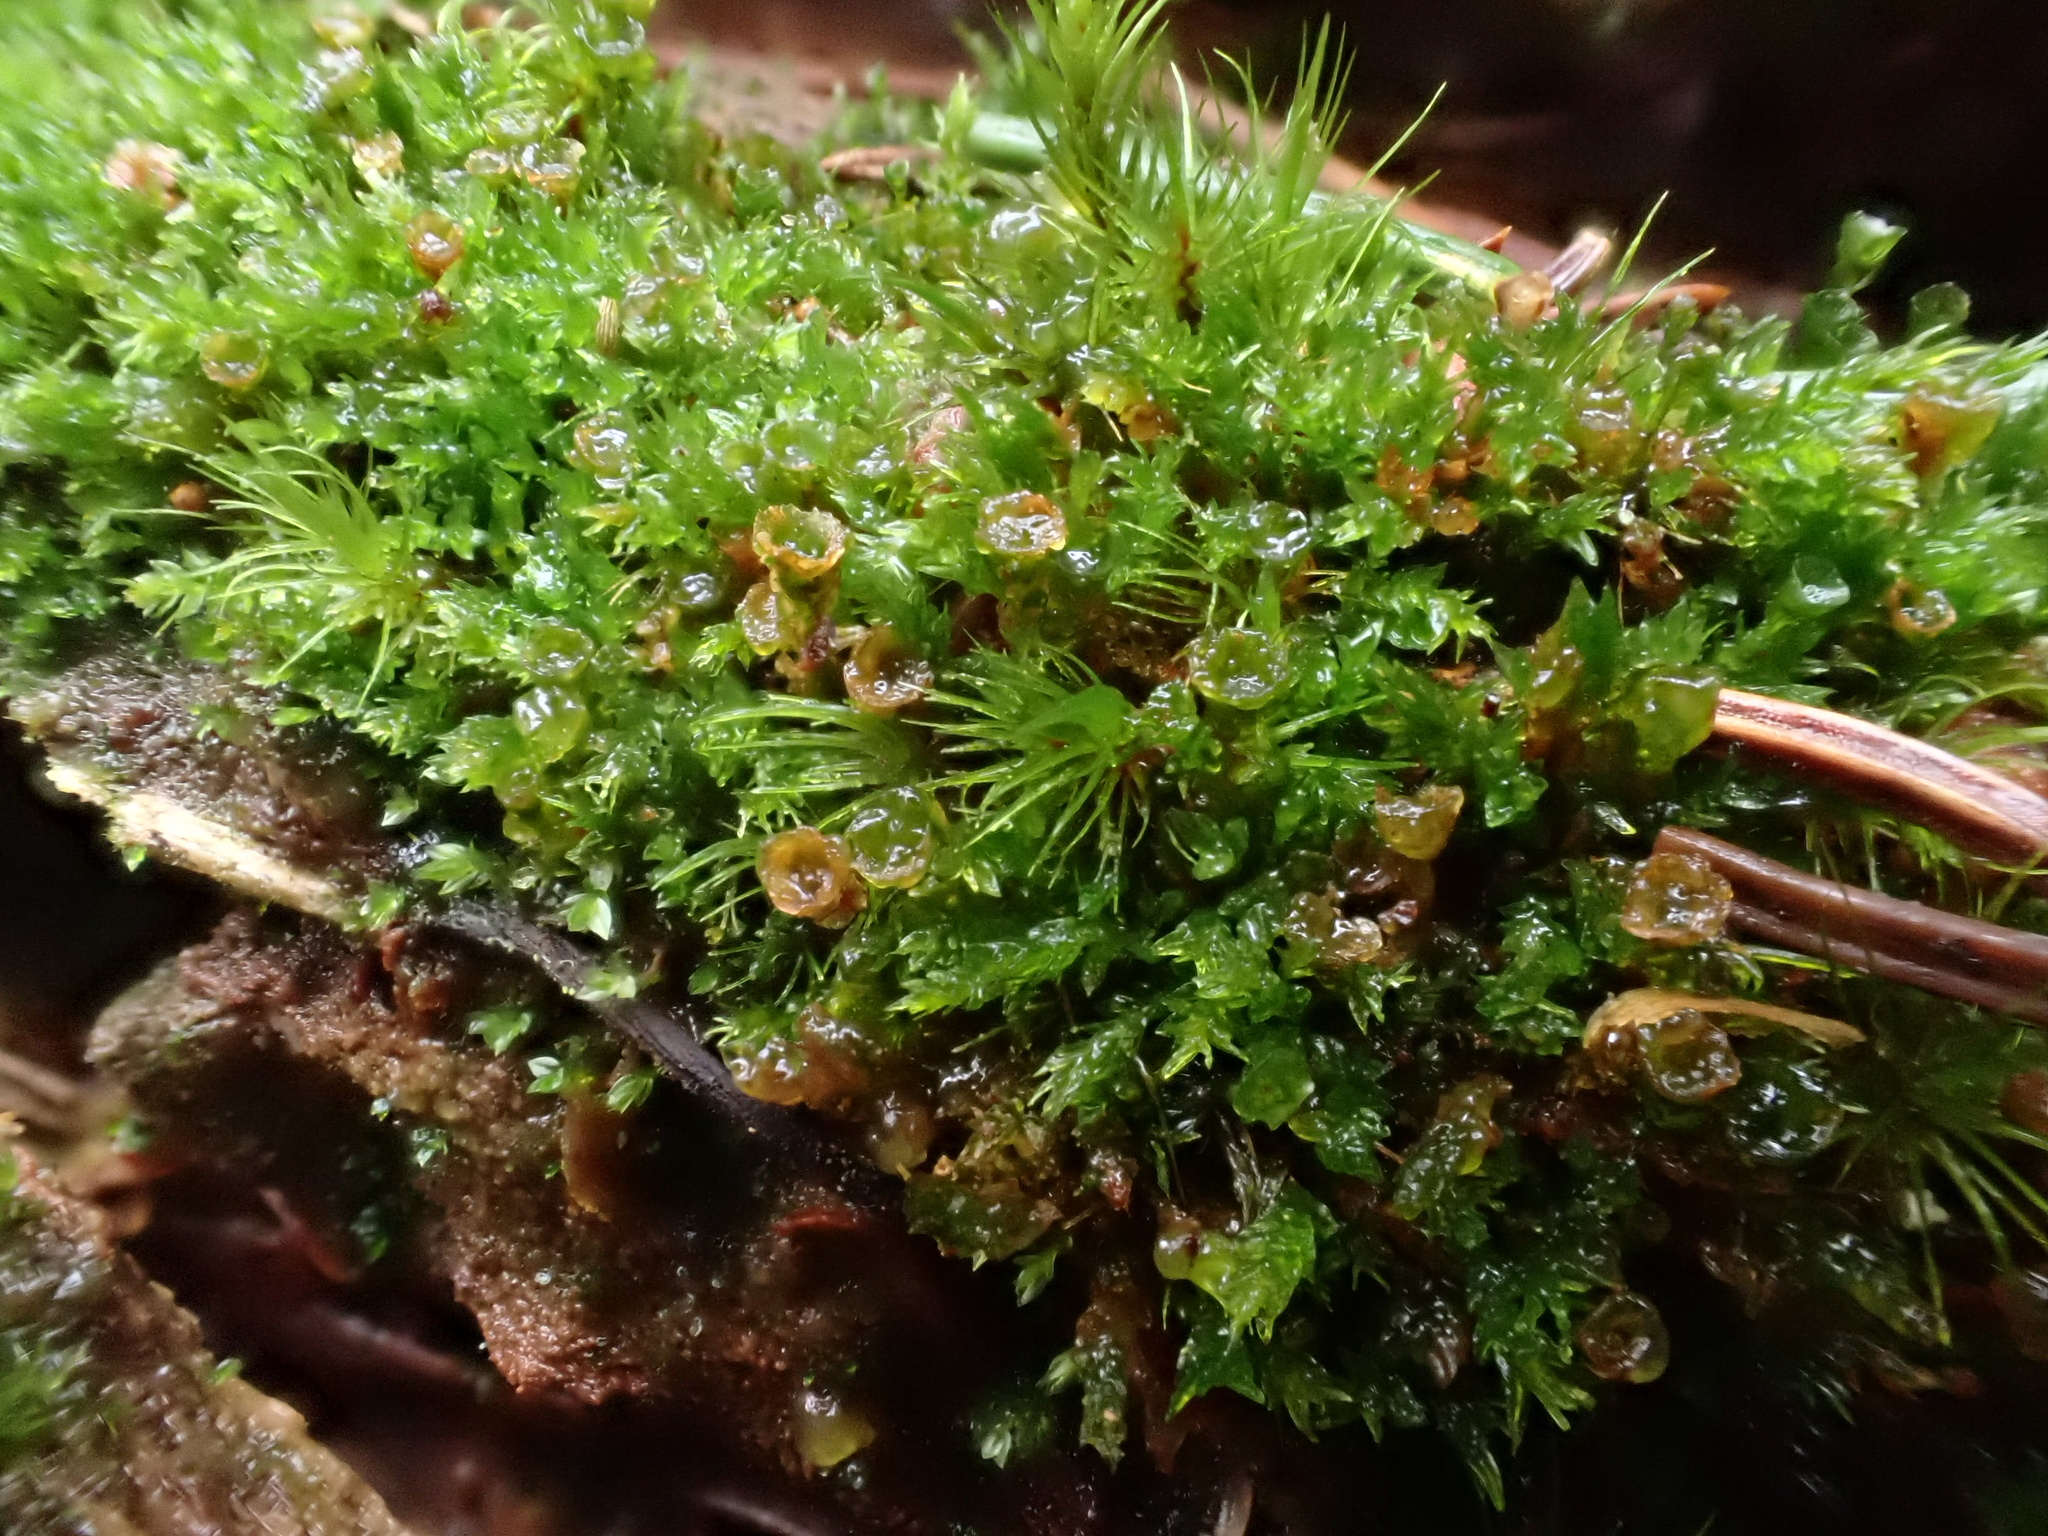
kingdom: Plantae
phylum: Bryophyta
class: Polytrichopsida
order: Tetraphidales
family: Tetraphidaceae
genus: Tetraphis
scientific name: Tetraphis pellucida
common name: Common four-toothed moss
